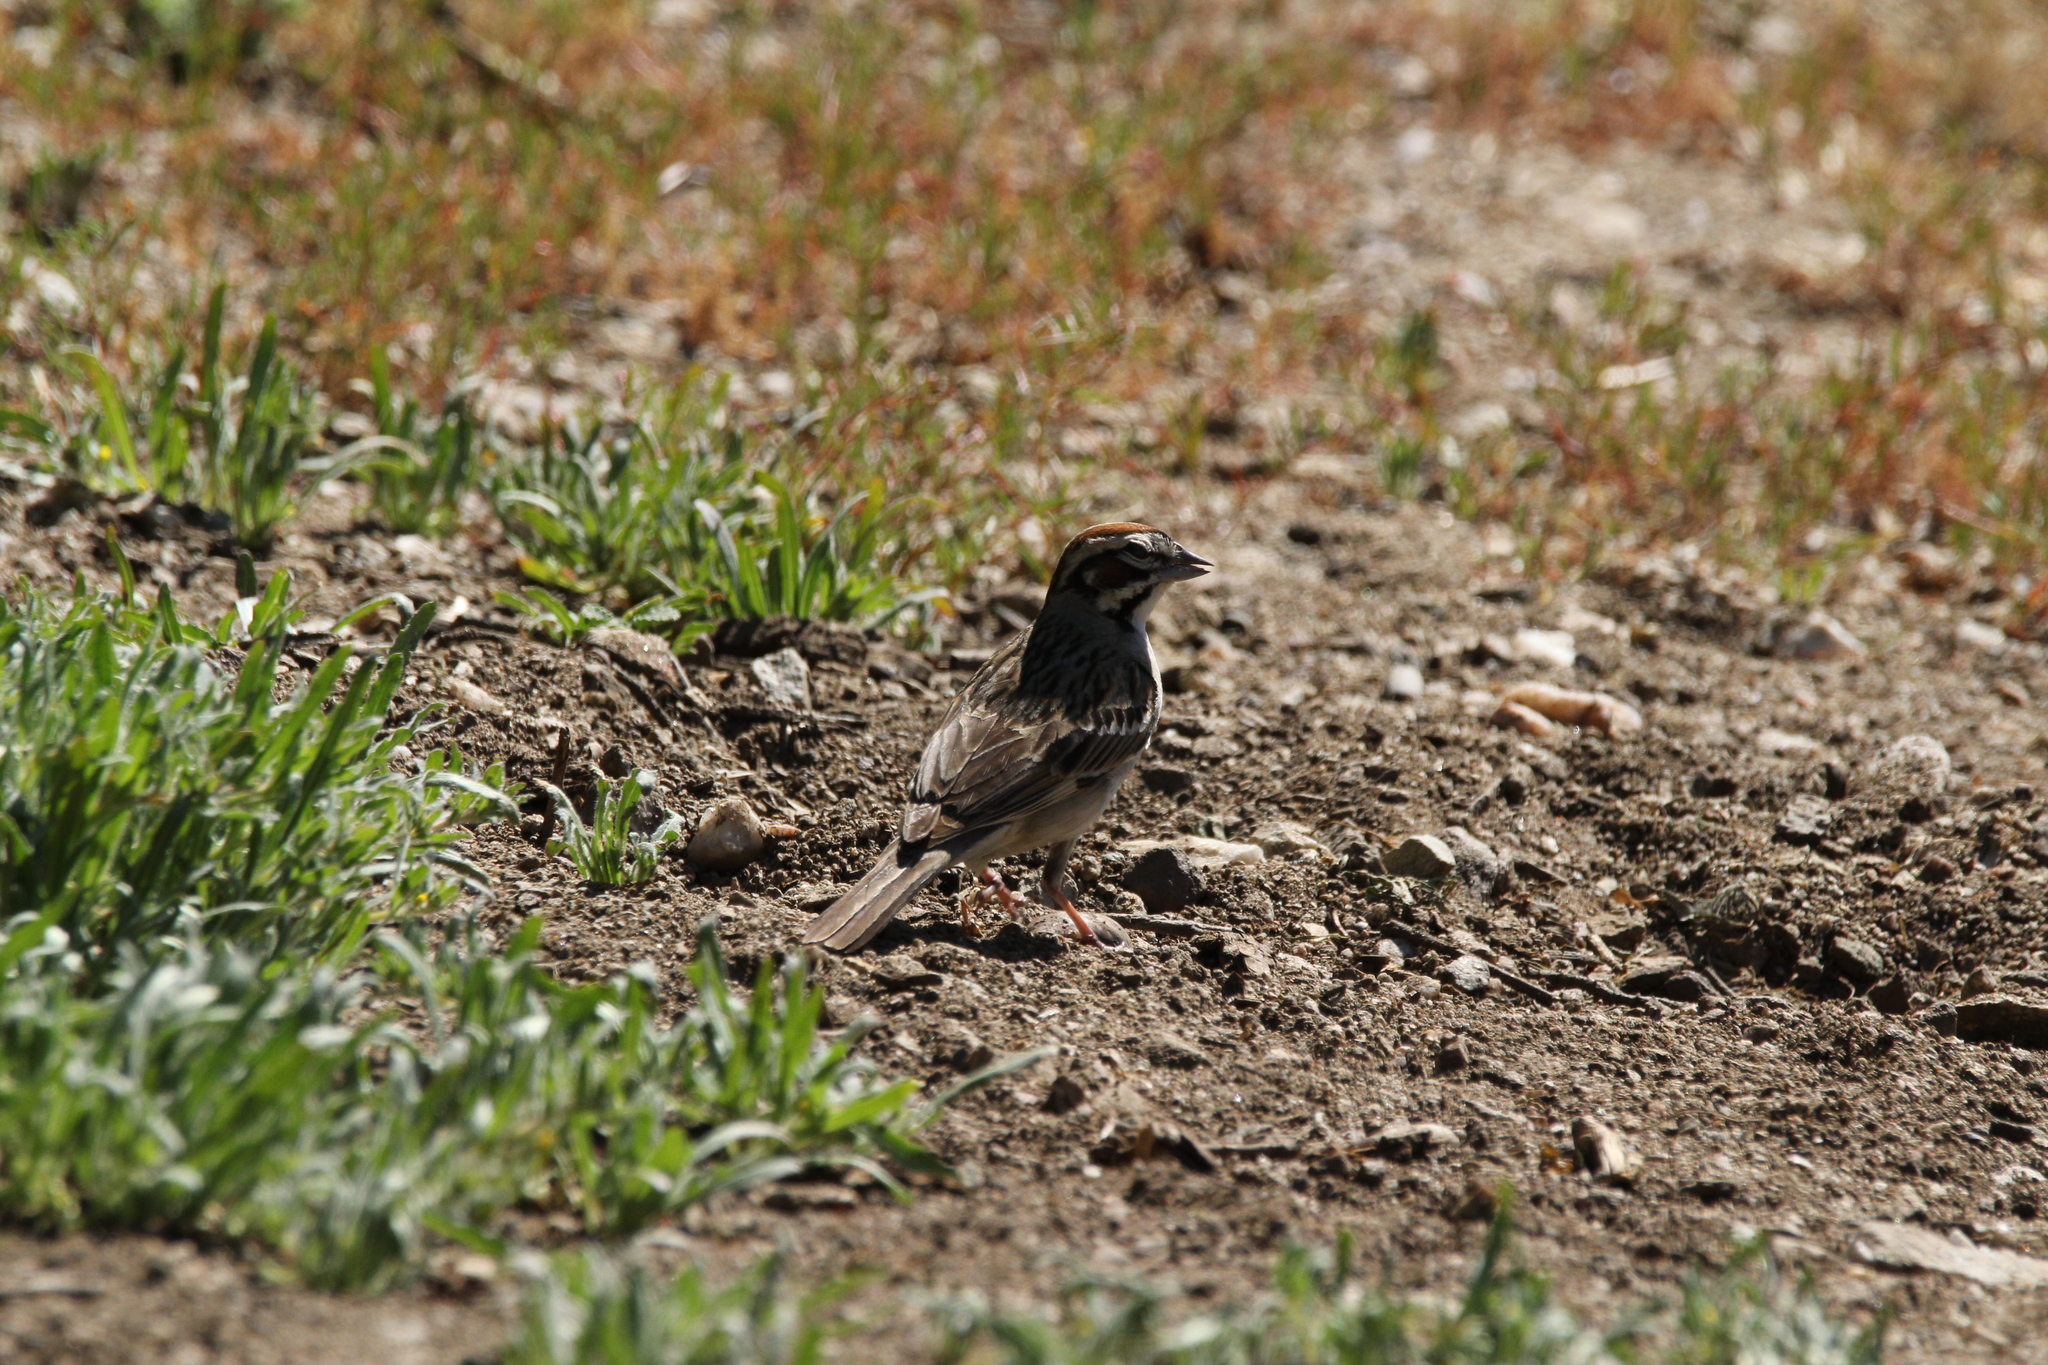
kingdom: Animalia
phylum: Chordata
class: Aves
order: Passeriformes
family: Passerellidae
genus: Chondestes
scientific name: Chondestes grammacus
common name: Lark sparrow
